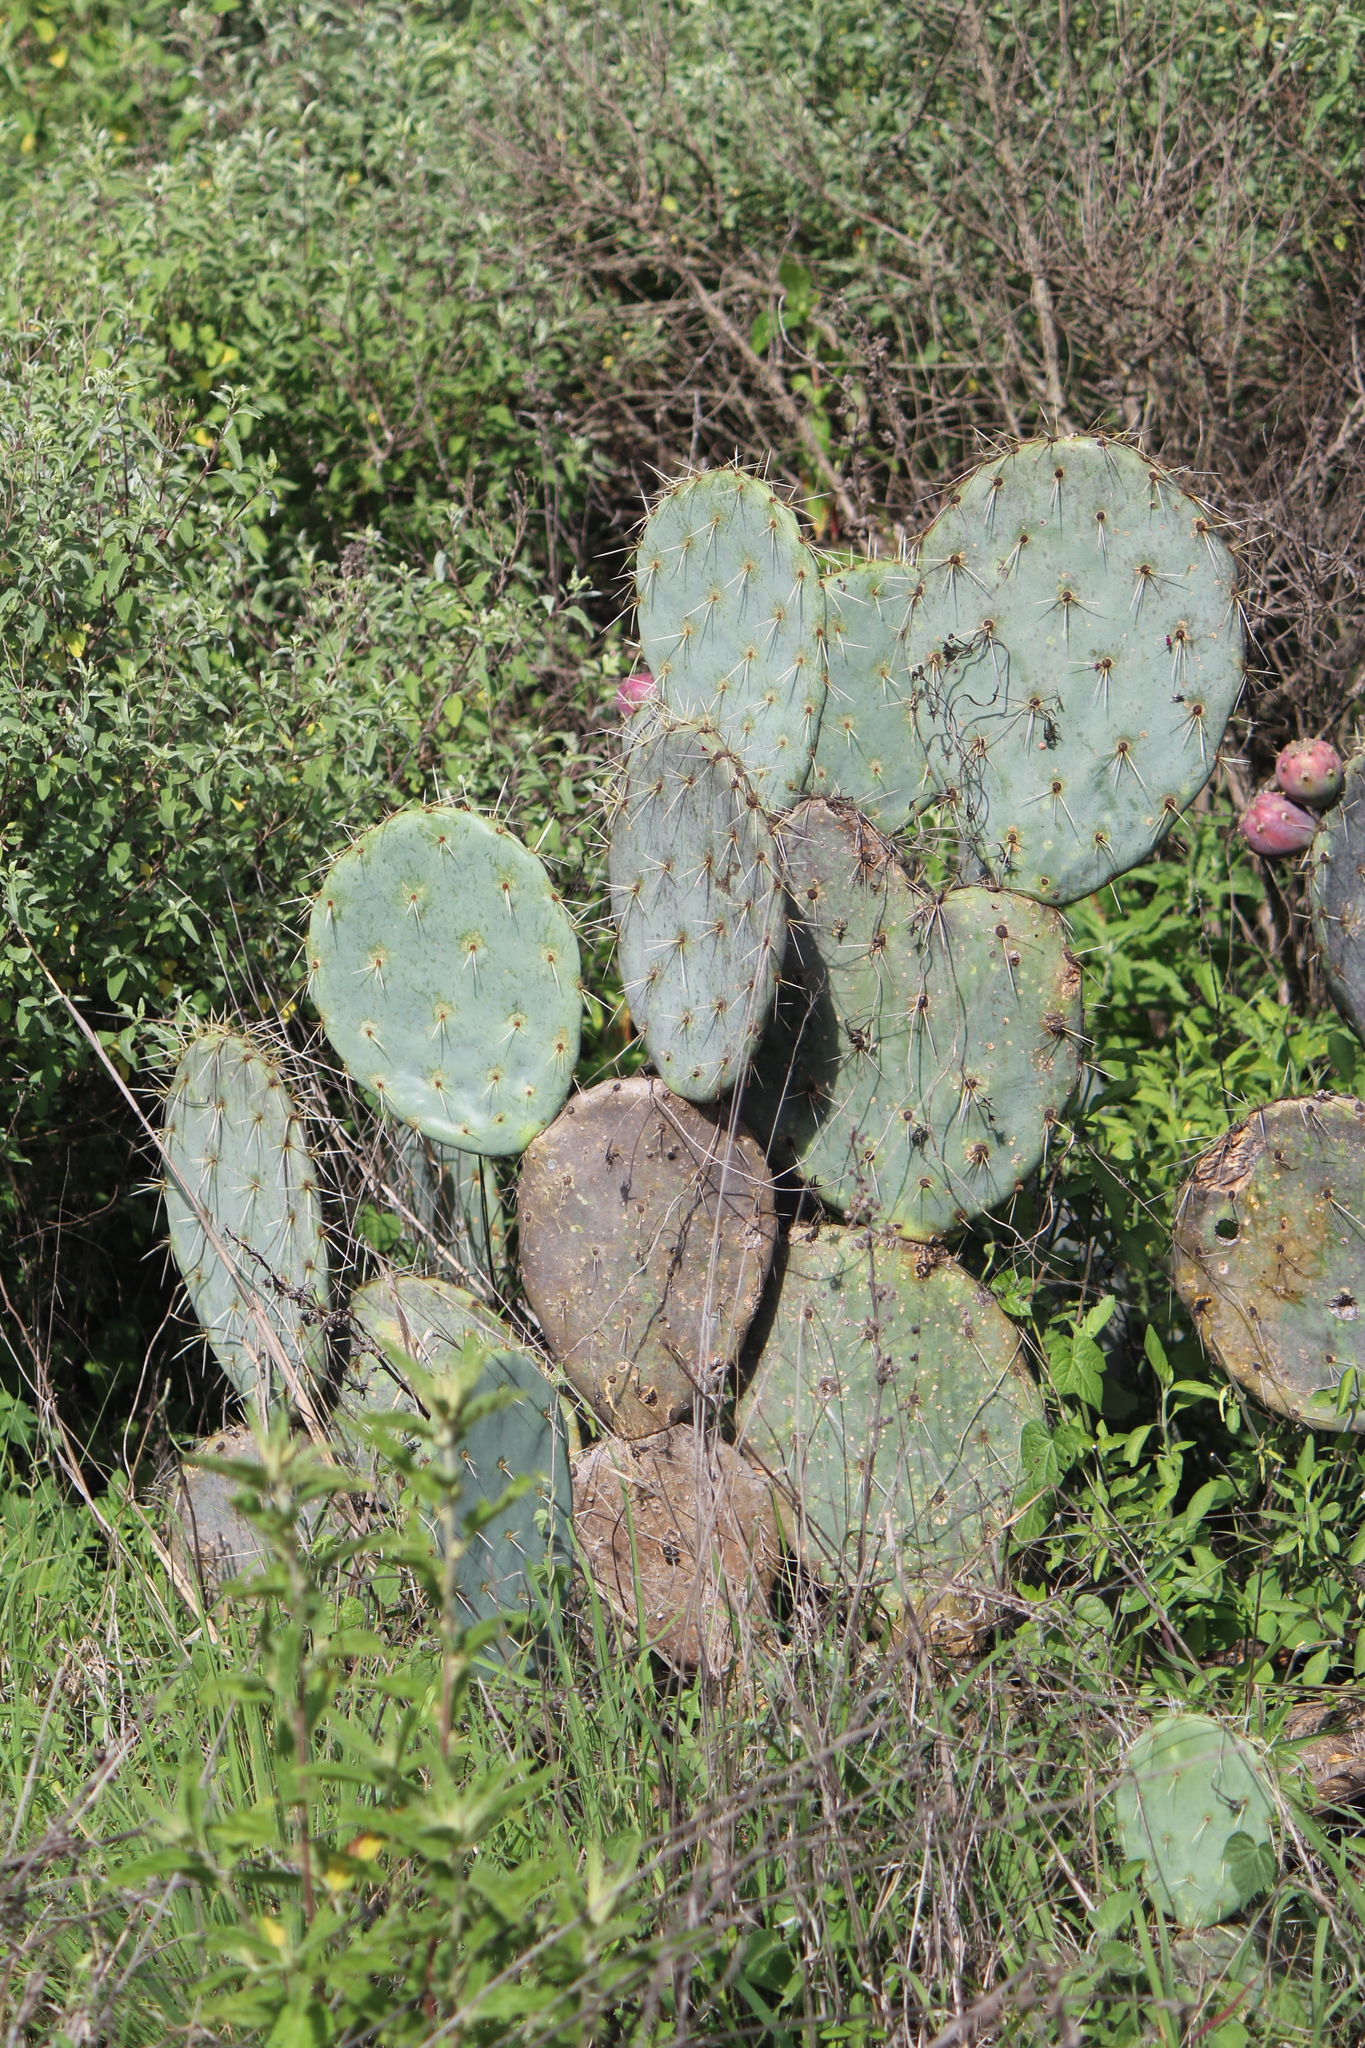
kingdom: Plantae
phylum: Tracheophyta
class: Magnoliopsida
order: Caryophyllales
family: Cactaceae
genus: Opuntia
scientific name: Opuntia robusta
